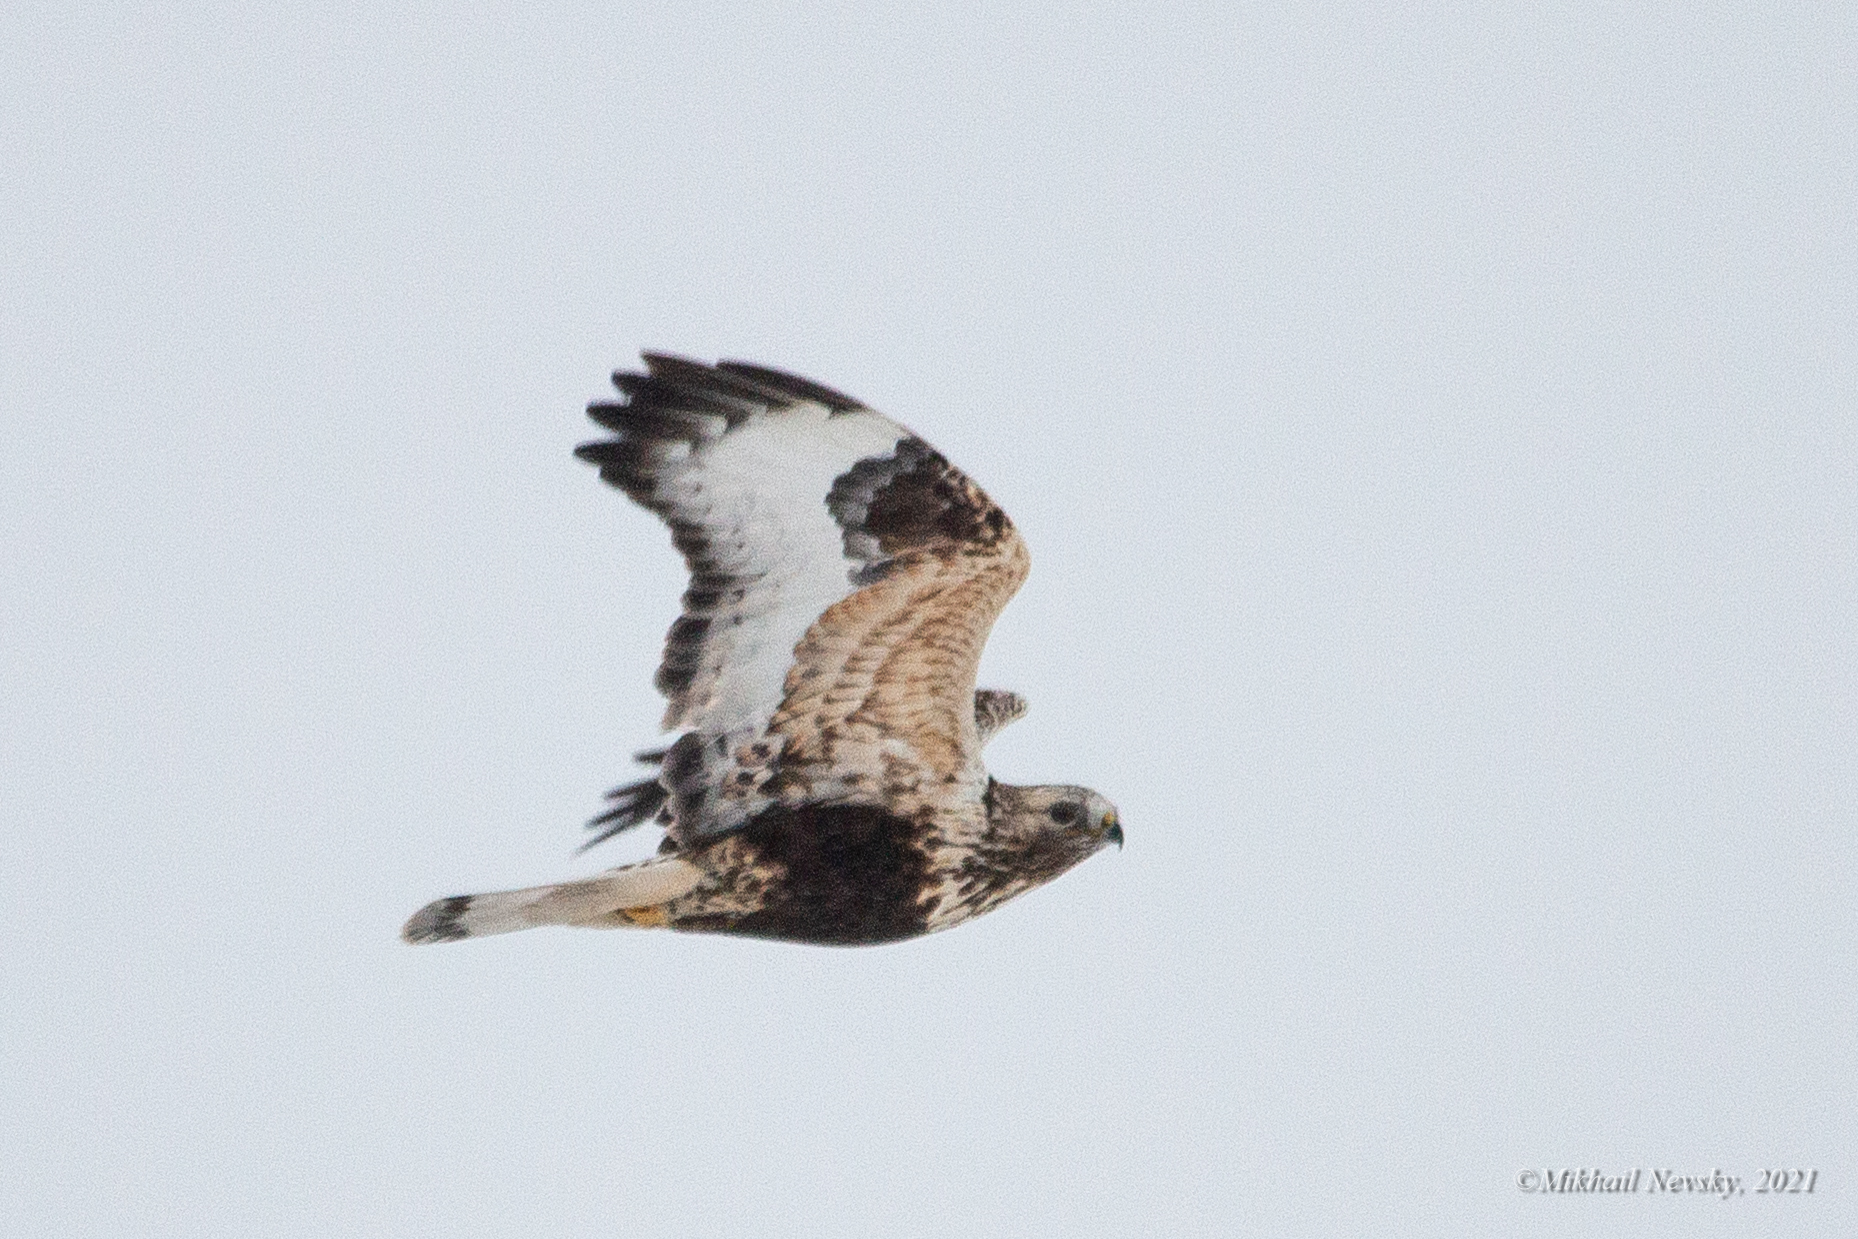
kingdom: Animalia
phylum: Chordata
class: Aves
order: Accipitriformes
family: Accipitridae
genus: Buteo
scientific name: Buteo lagopus
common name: Rough-legged buzzard
